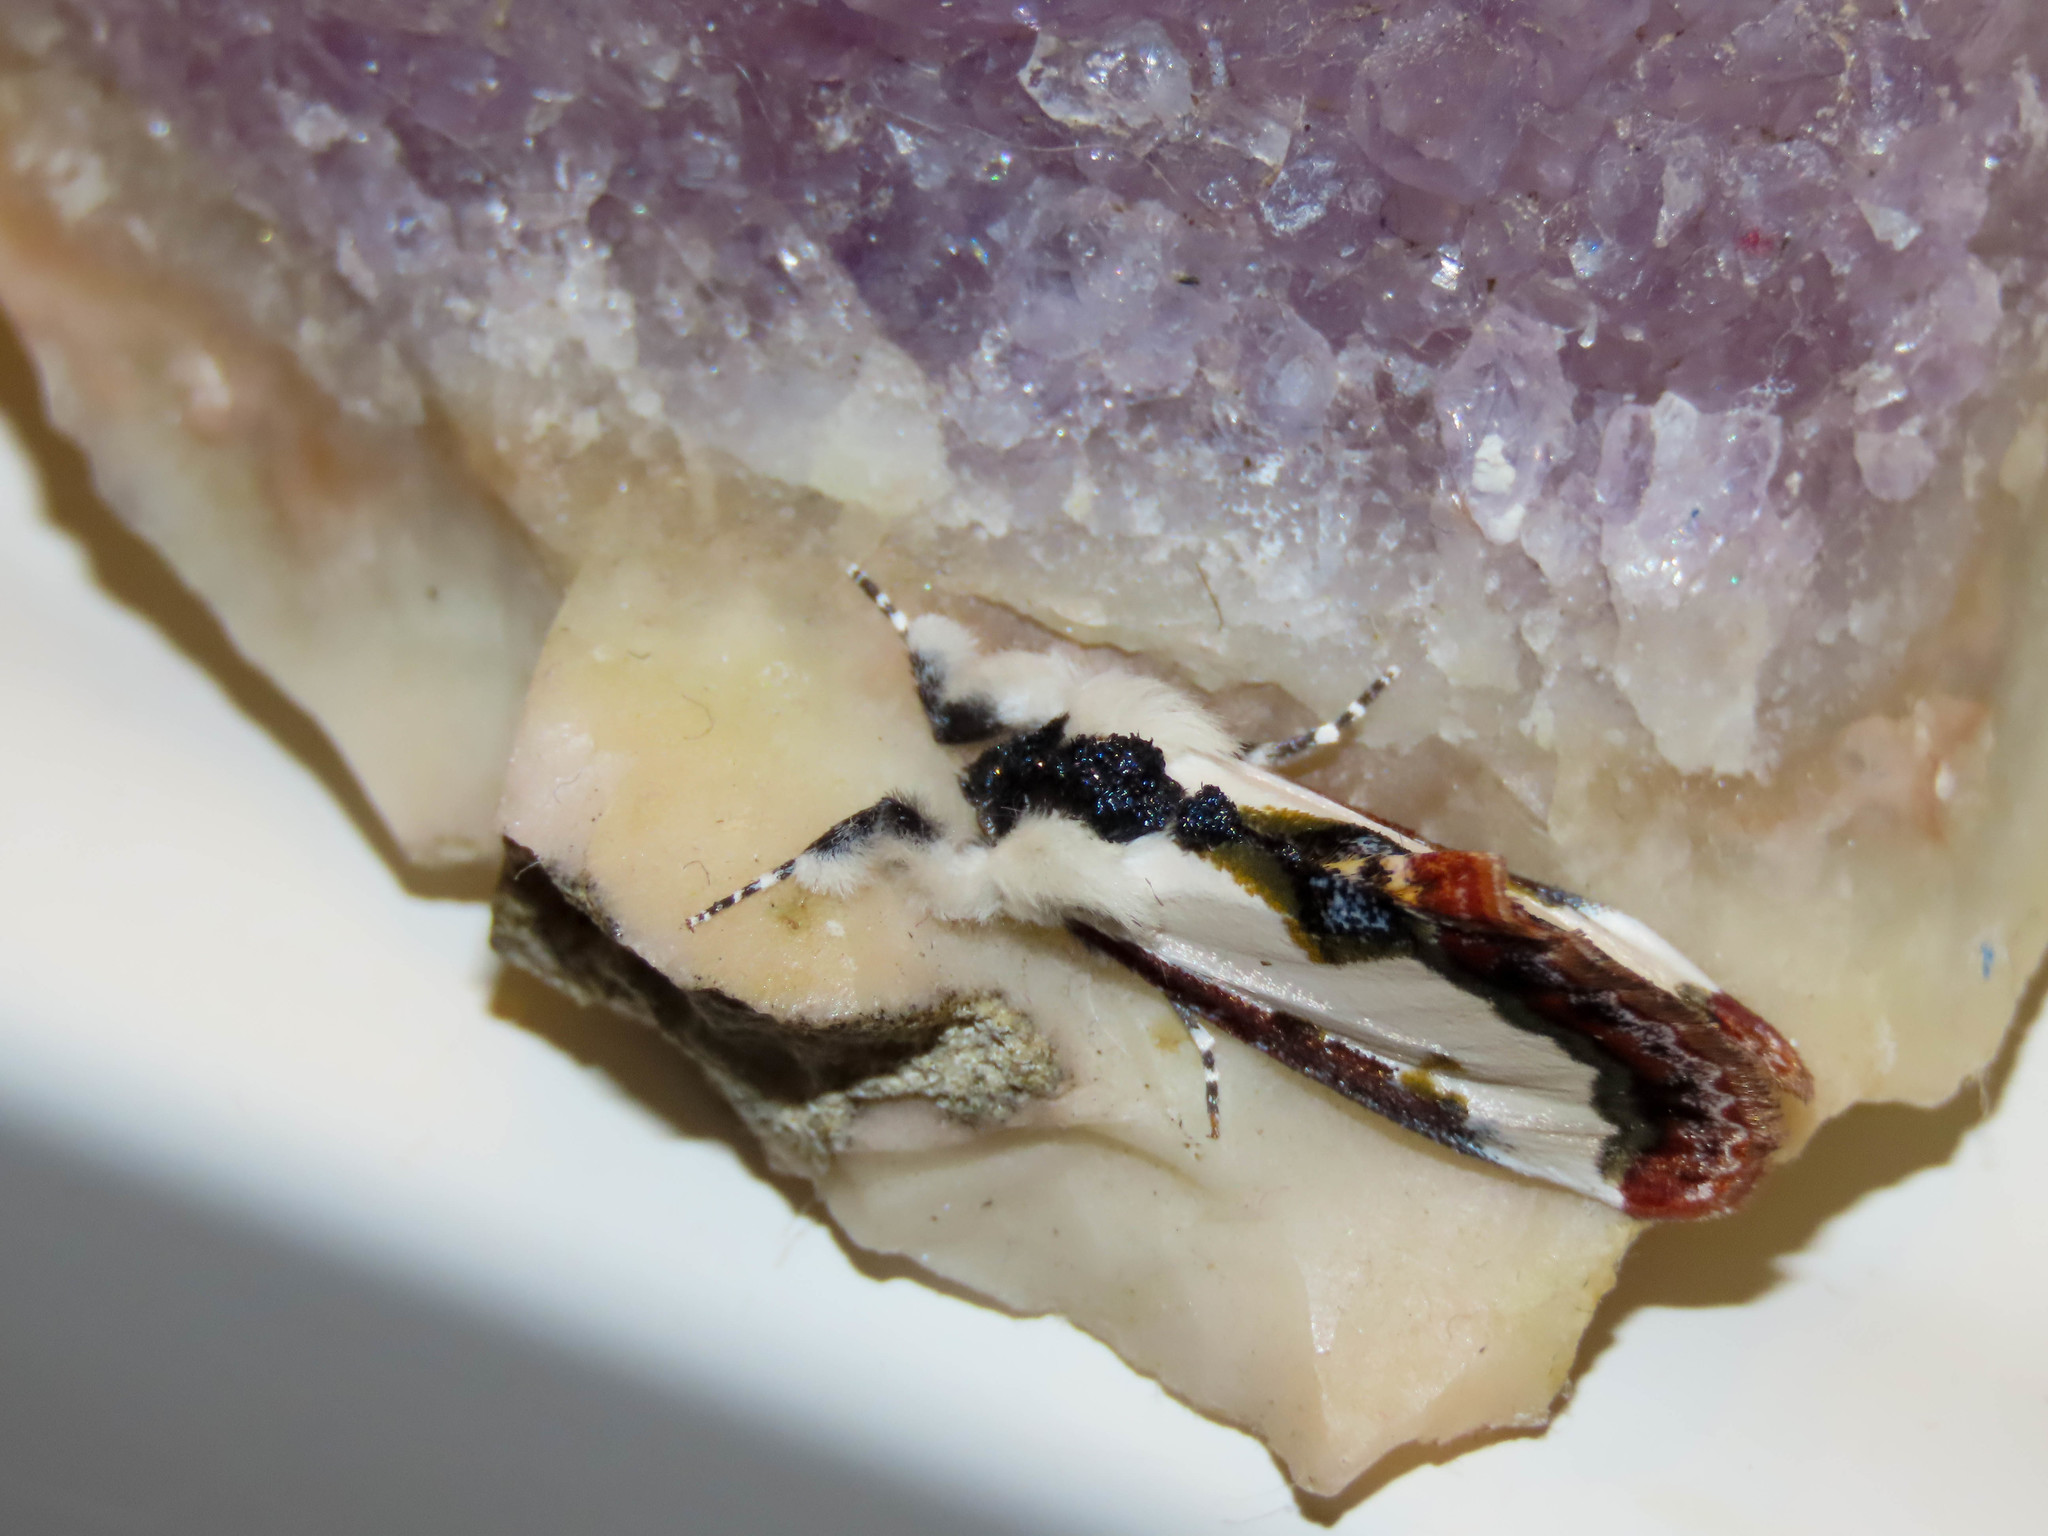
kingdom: Animalia
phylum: Arthropoda
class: Insecta
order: Lepidoptera
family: Noctuidae
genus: Eudryas
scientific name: Eudryas unio
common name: Pearly wood-nymph
